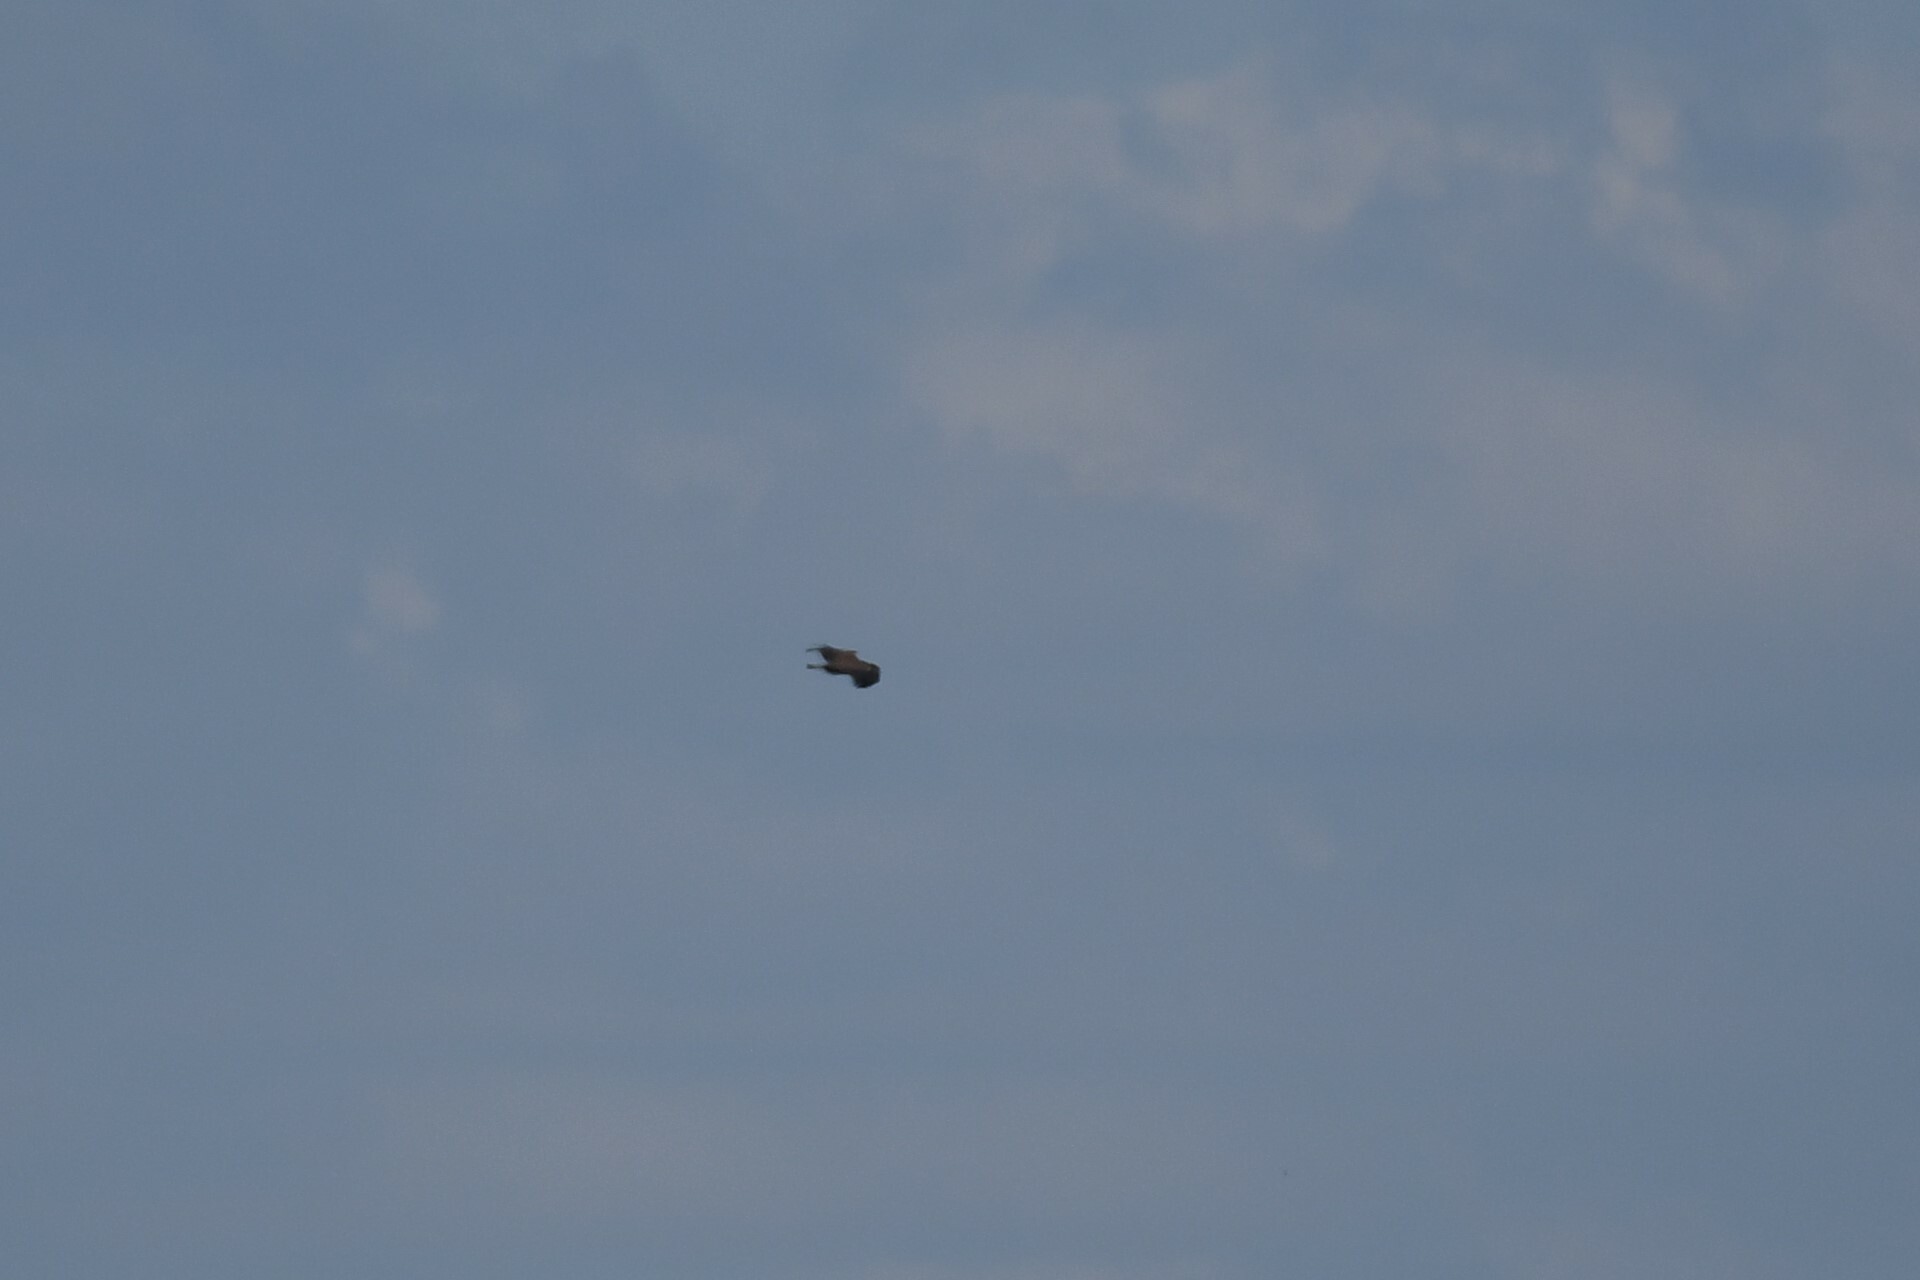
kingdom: Animalia
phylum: Chordata
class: Aves
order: Accipitriformes
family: Accipitridae
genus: Haliaeetus
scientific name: Haliaeetus leucocephalus
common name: Bald eagle
